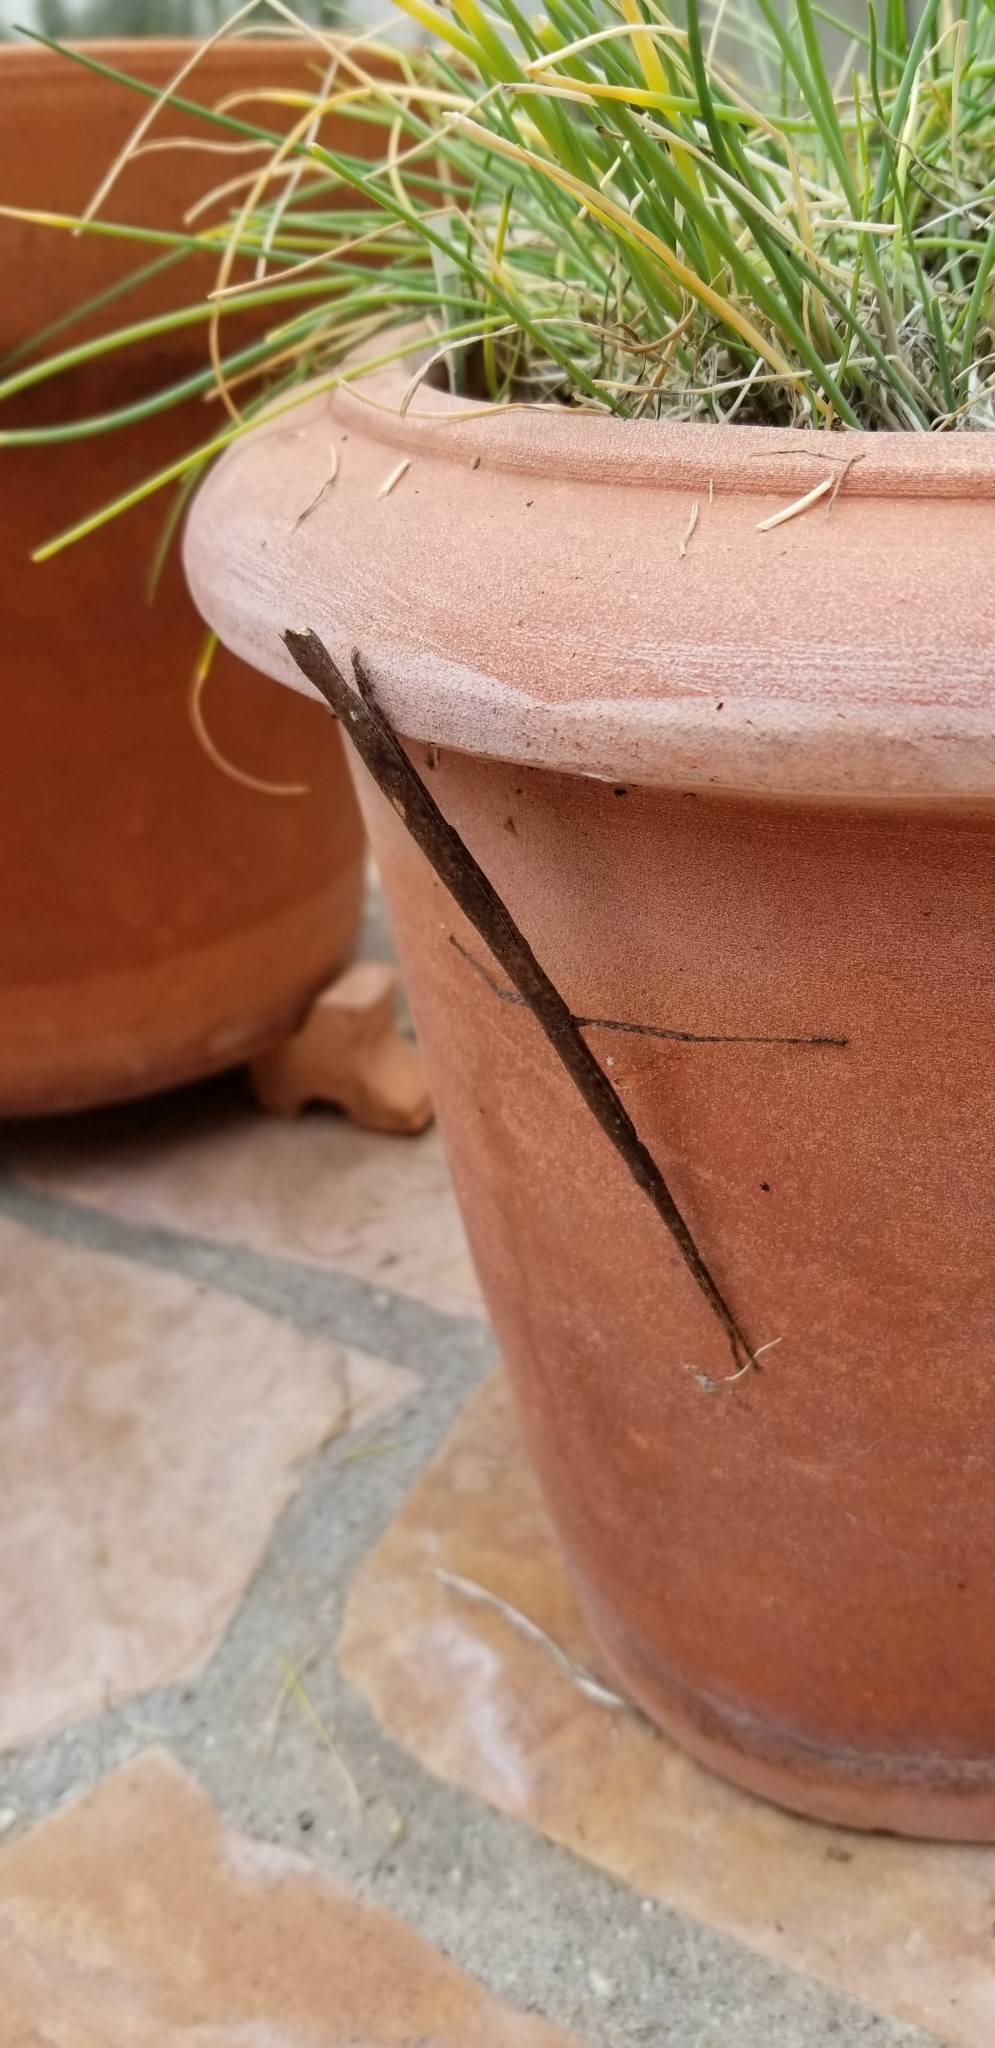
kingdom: Animalia
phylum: Arthropoda
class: Insecta
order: Phasmida
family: Lonchodidae
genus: Carausius
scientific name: Carausius morosus
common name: Indian stick insect
